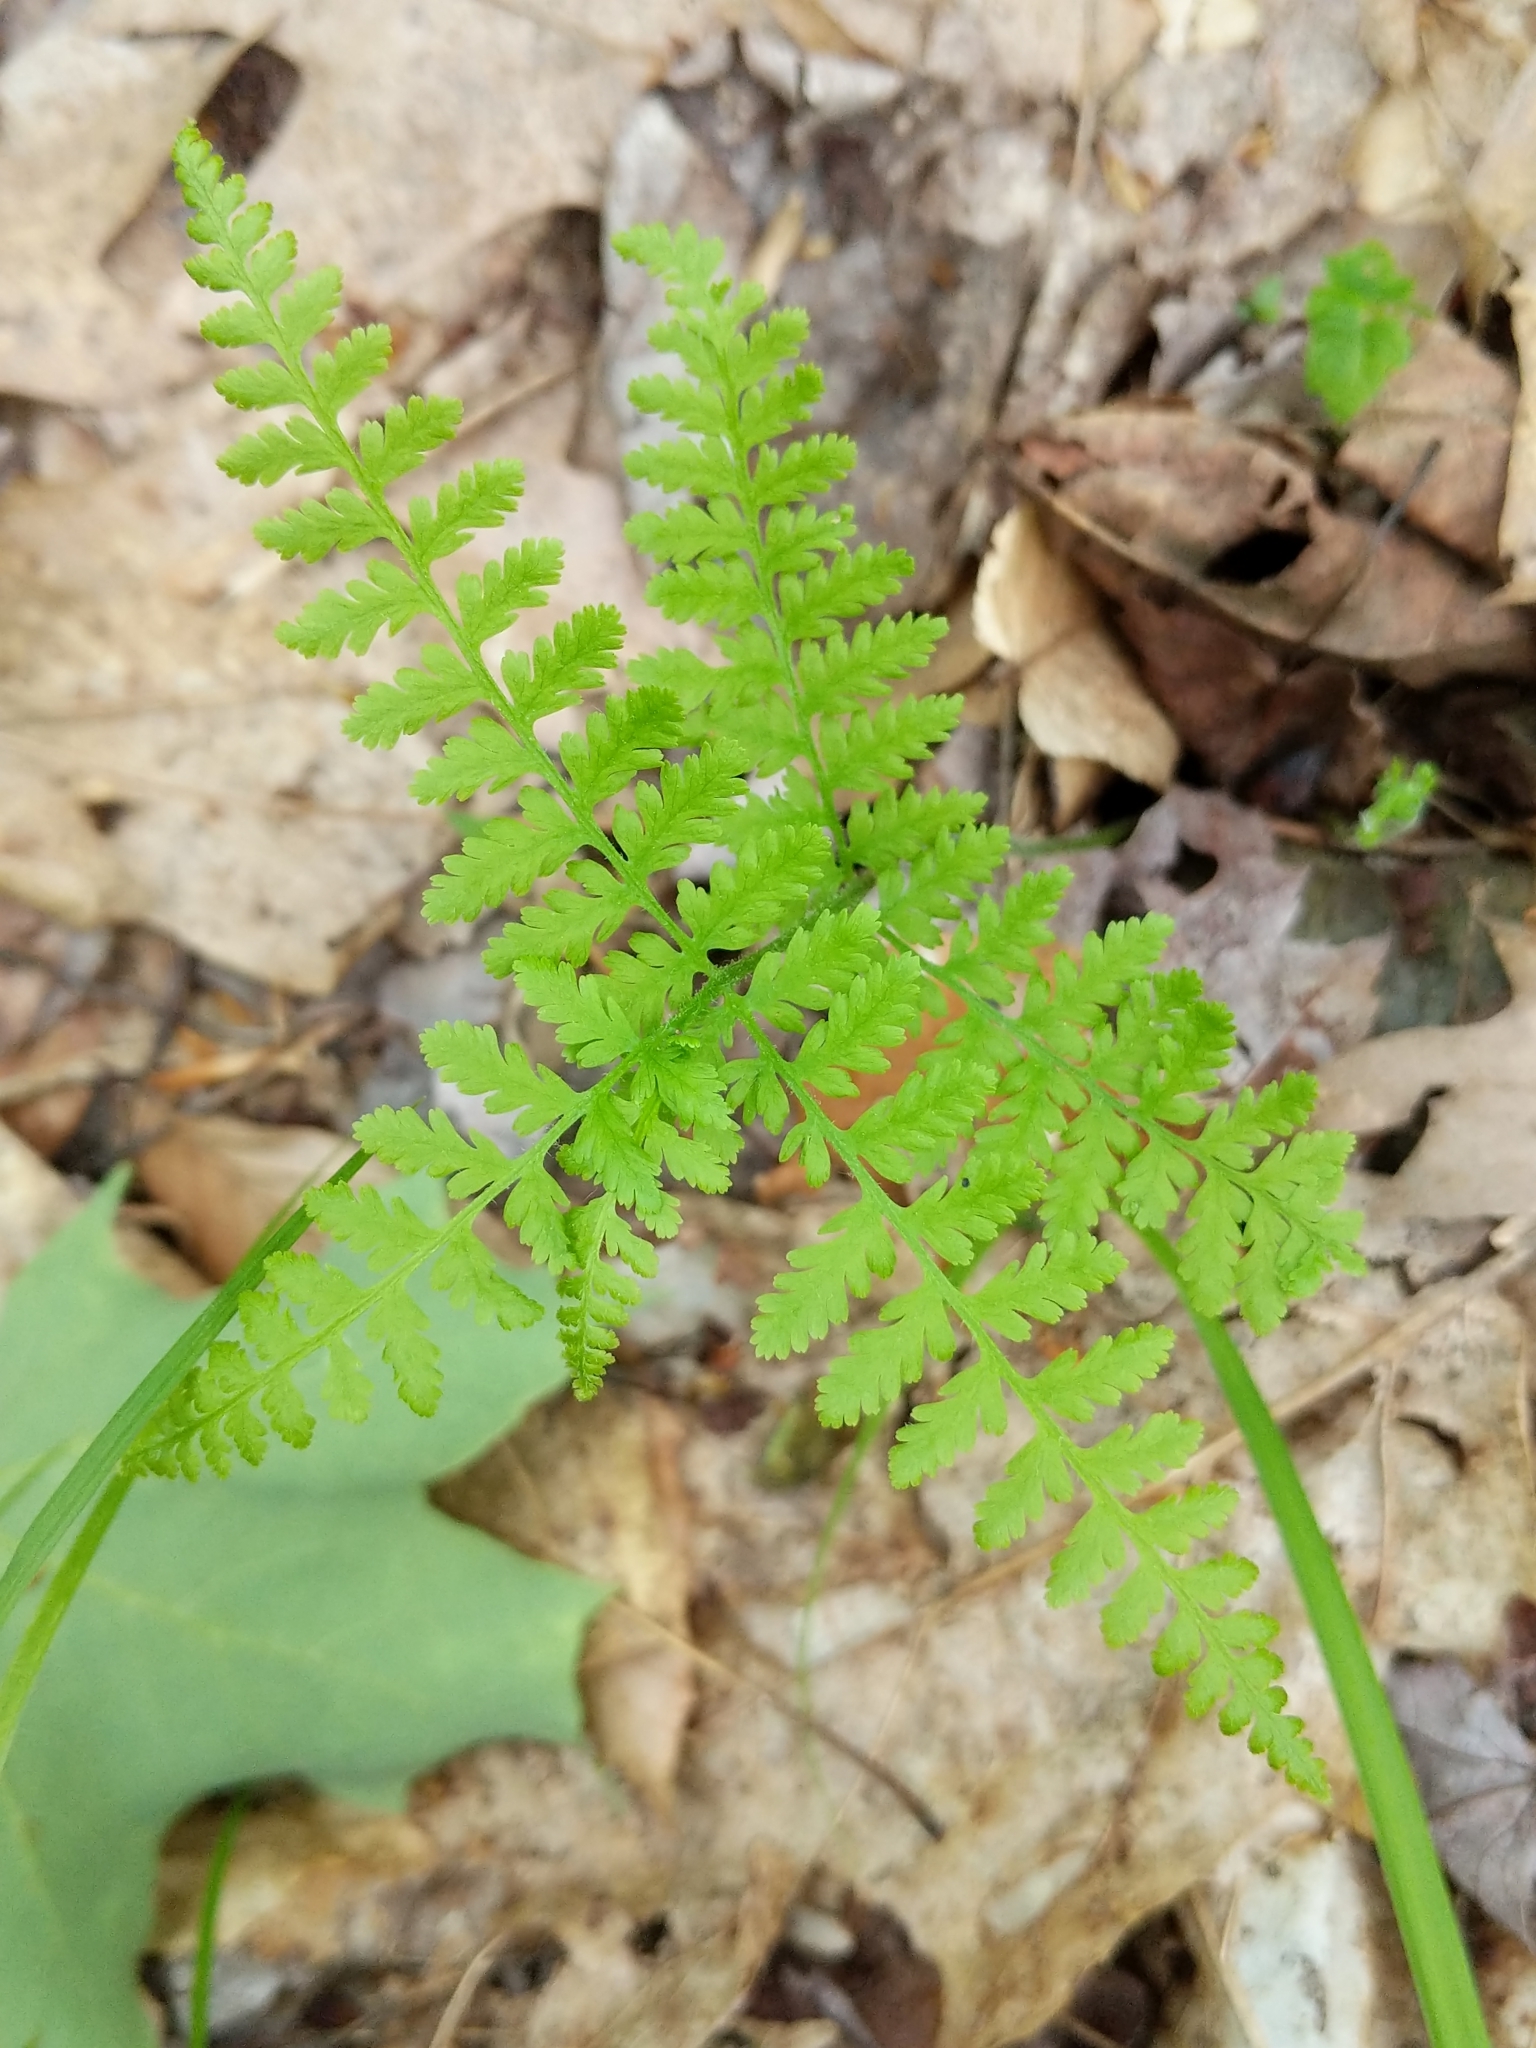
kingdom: Plantae
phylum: Tracheophyta
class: Polypodiopsida
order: Polypodiales
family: Dennstaedtiaceae
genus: Sitobolium
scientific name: Sitobolium punctilobum
